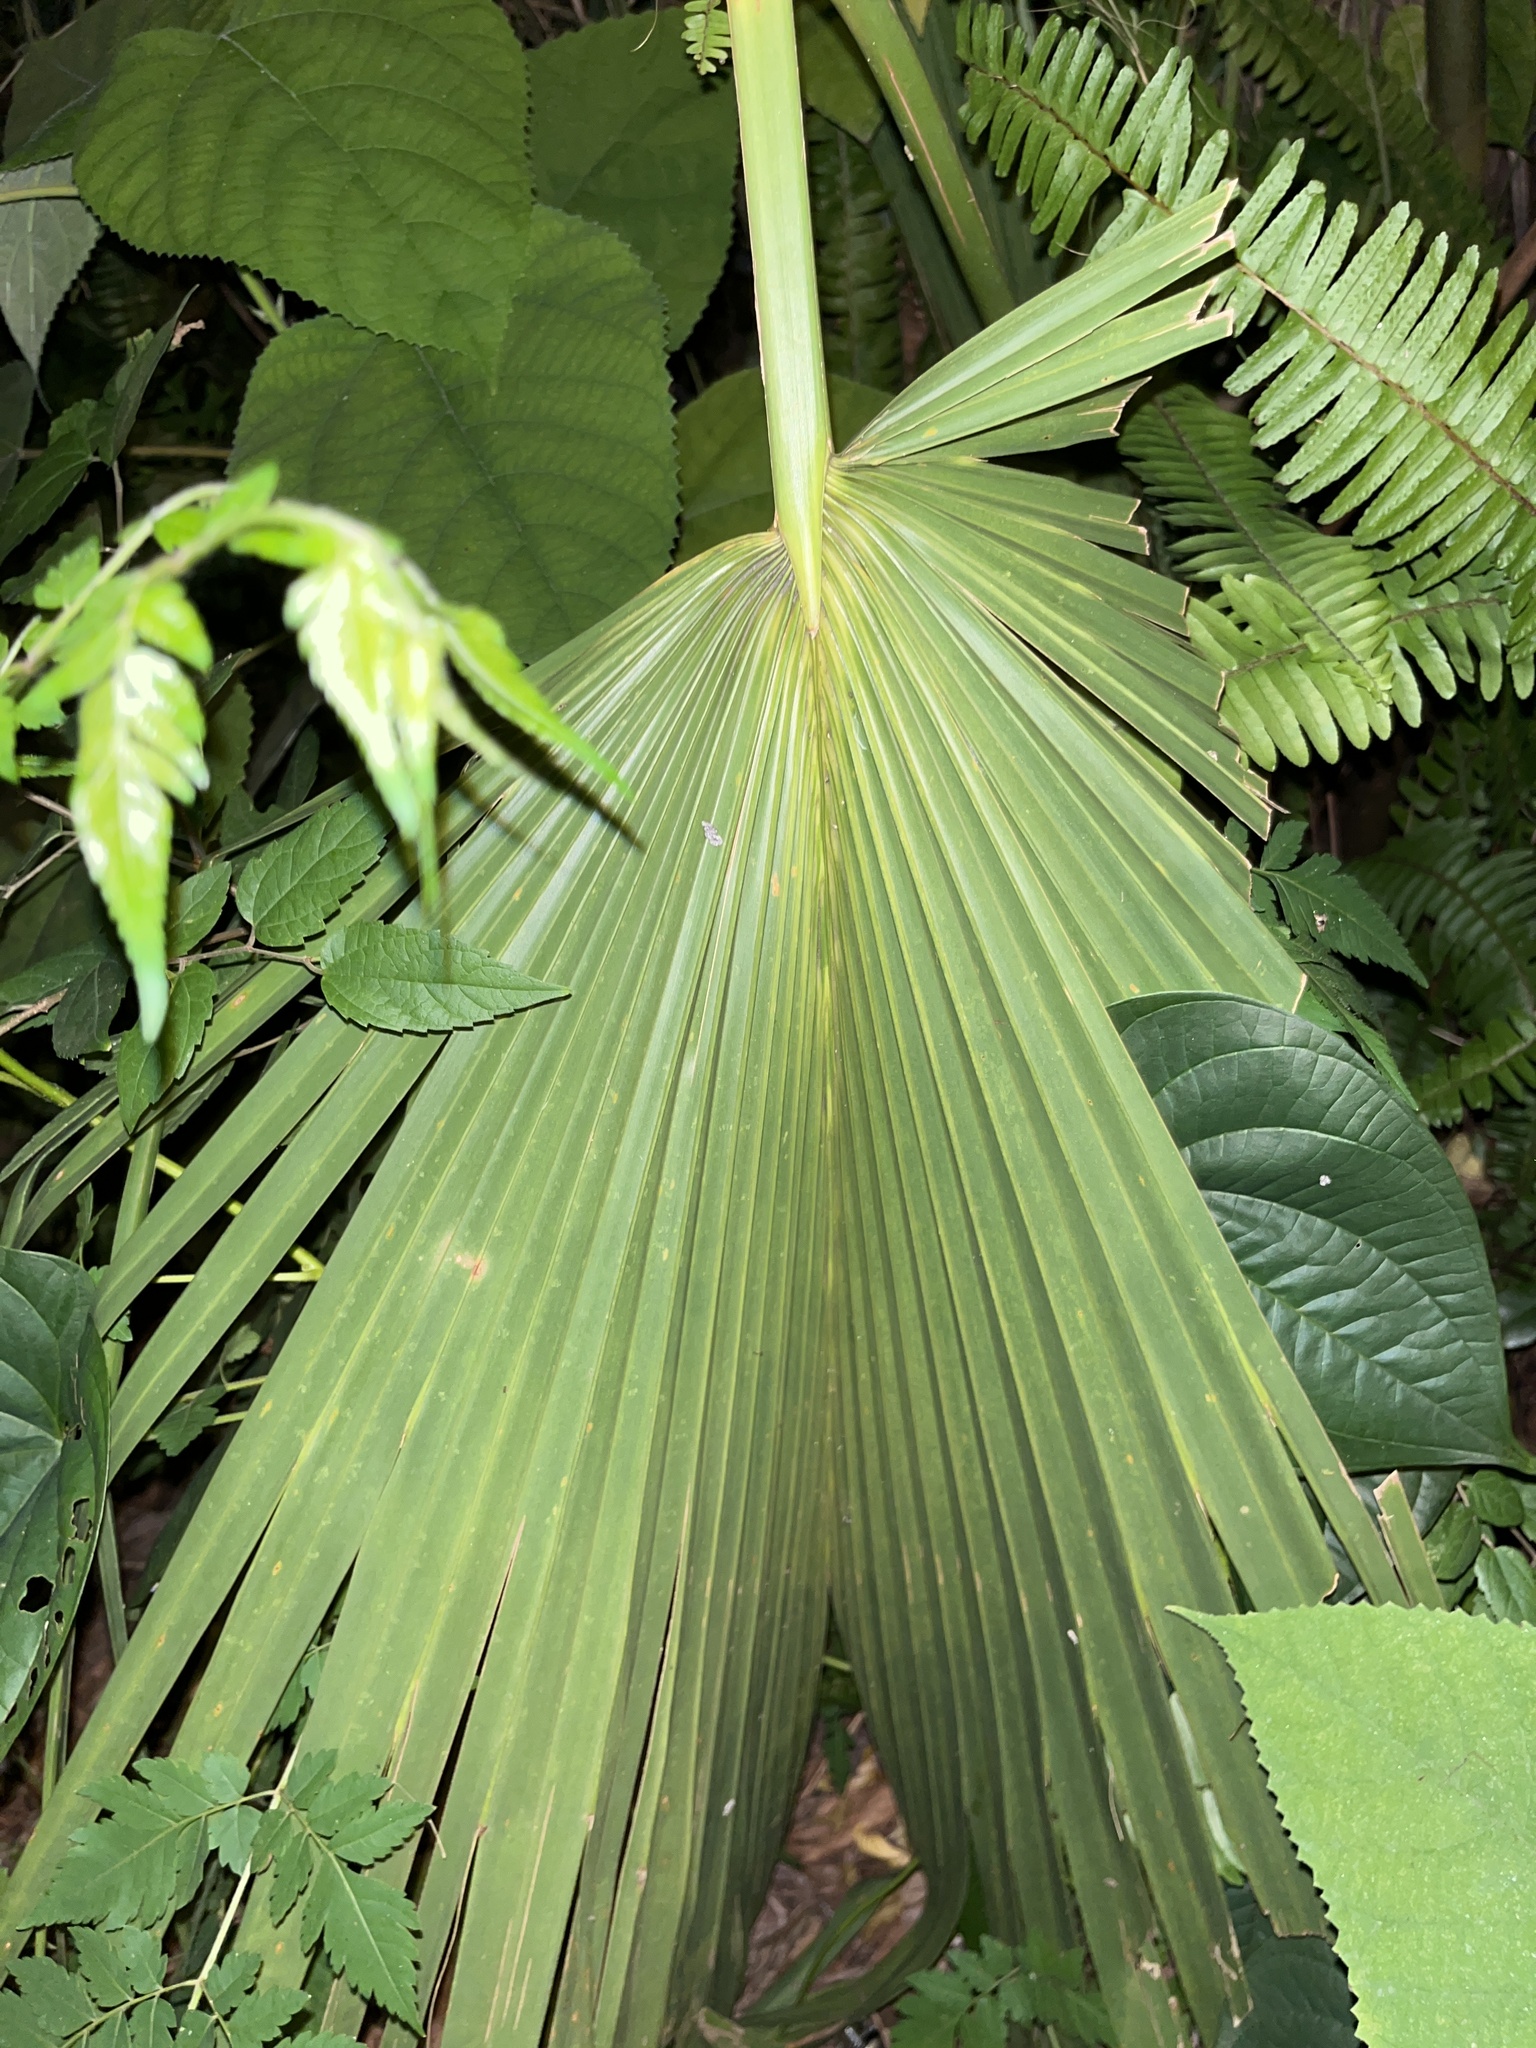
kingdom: Plantae
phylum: Tracheophyta
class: Liliopsida
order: Arecales
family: Arecaceae
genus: Sabal
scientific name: Sabal palmetto
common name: Blue palmetto
